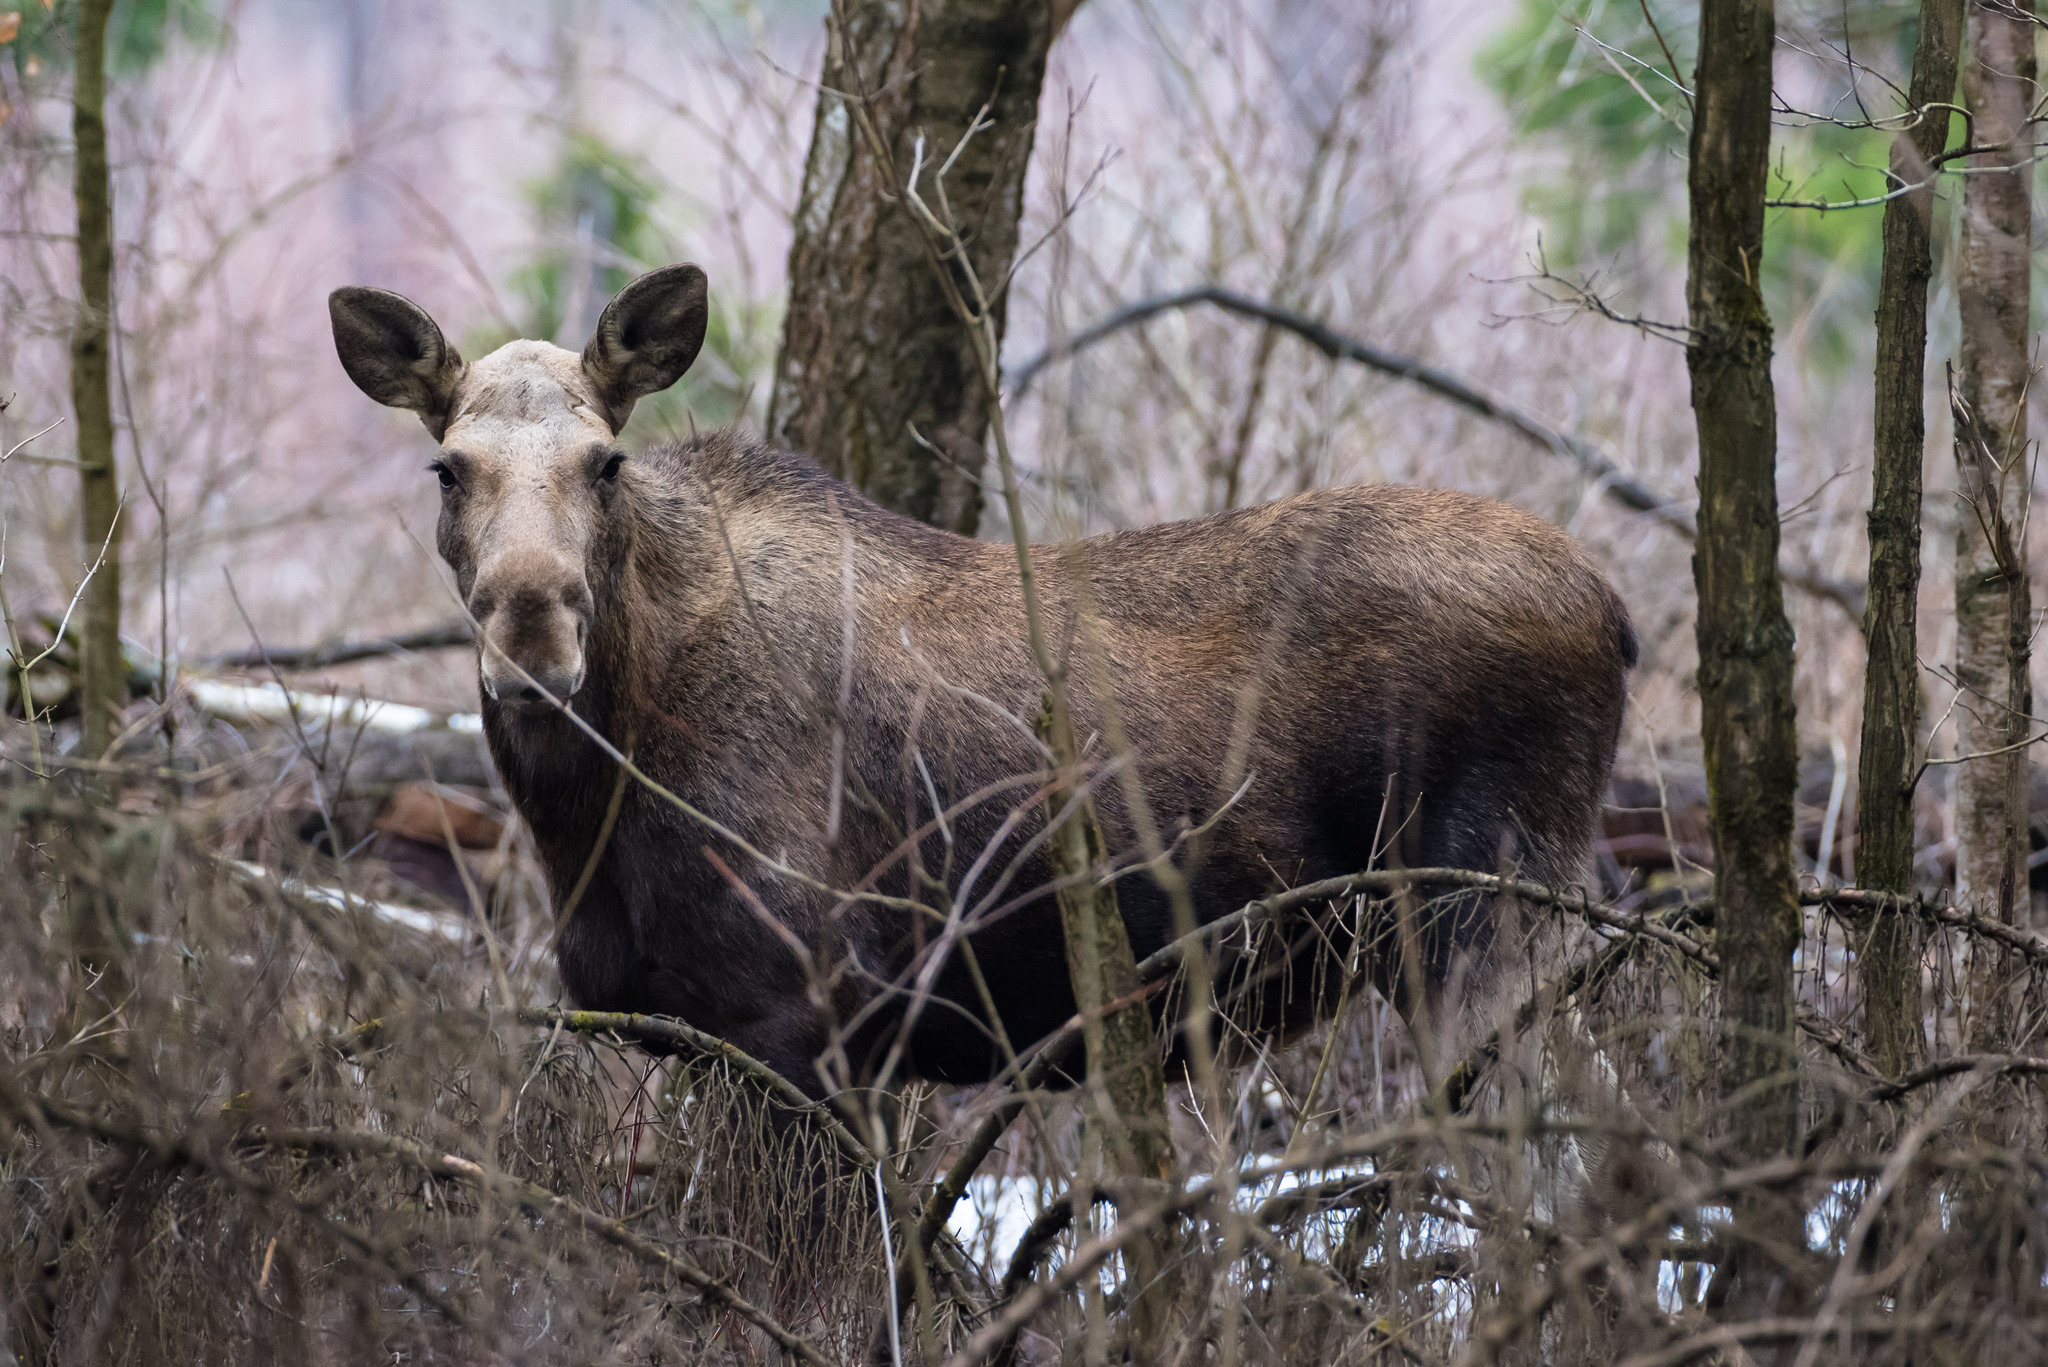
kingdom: Animalia
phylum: Chordata
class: Mammalia
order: Artiodactyla
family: Cervidae
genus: Alces
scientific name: Alces alces
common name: Moose
